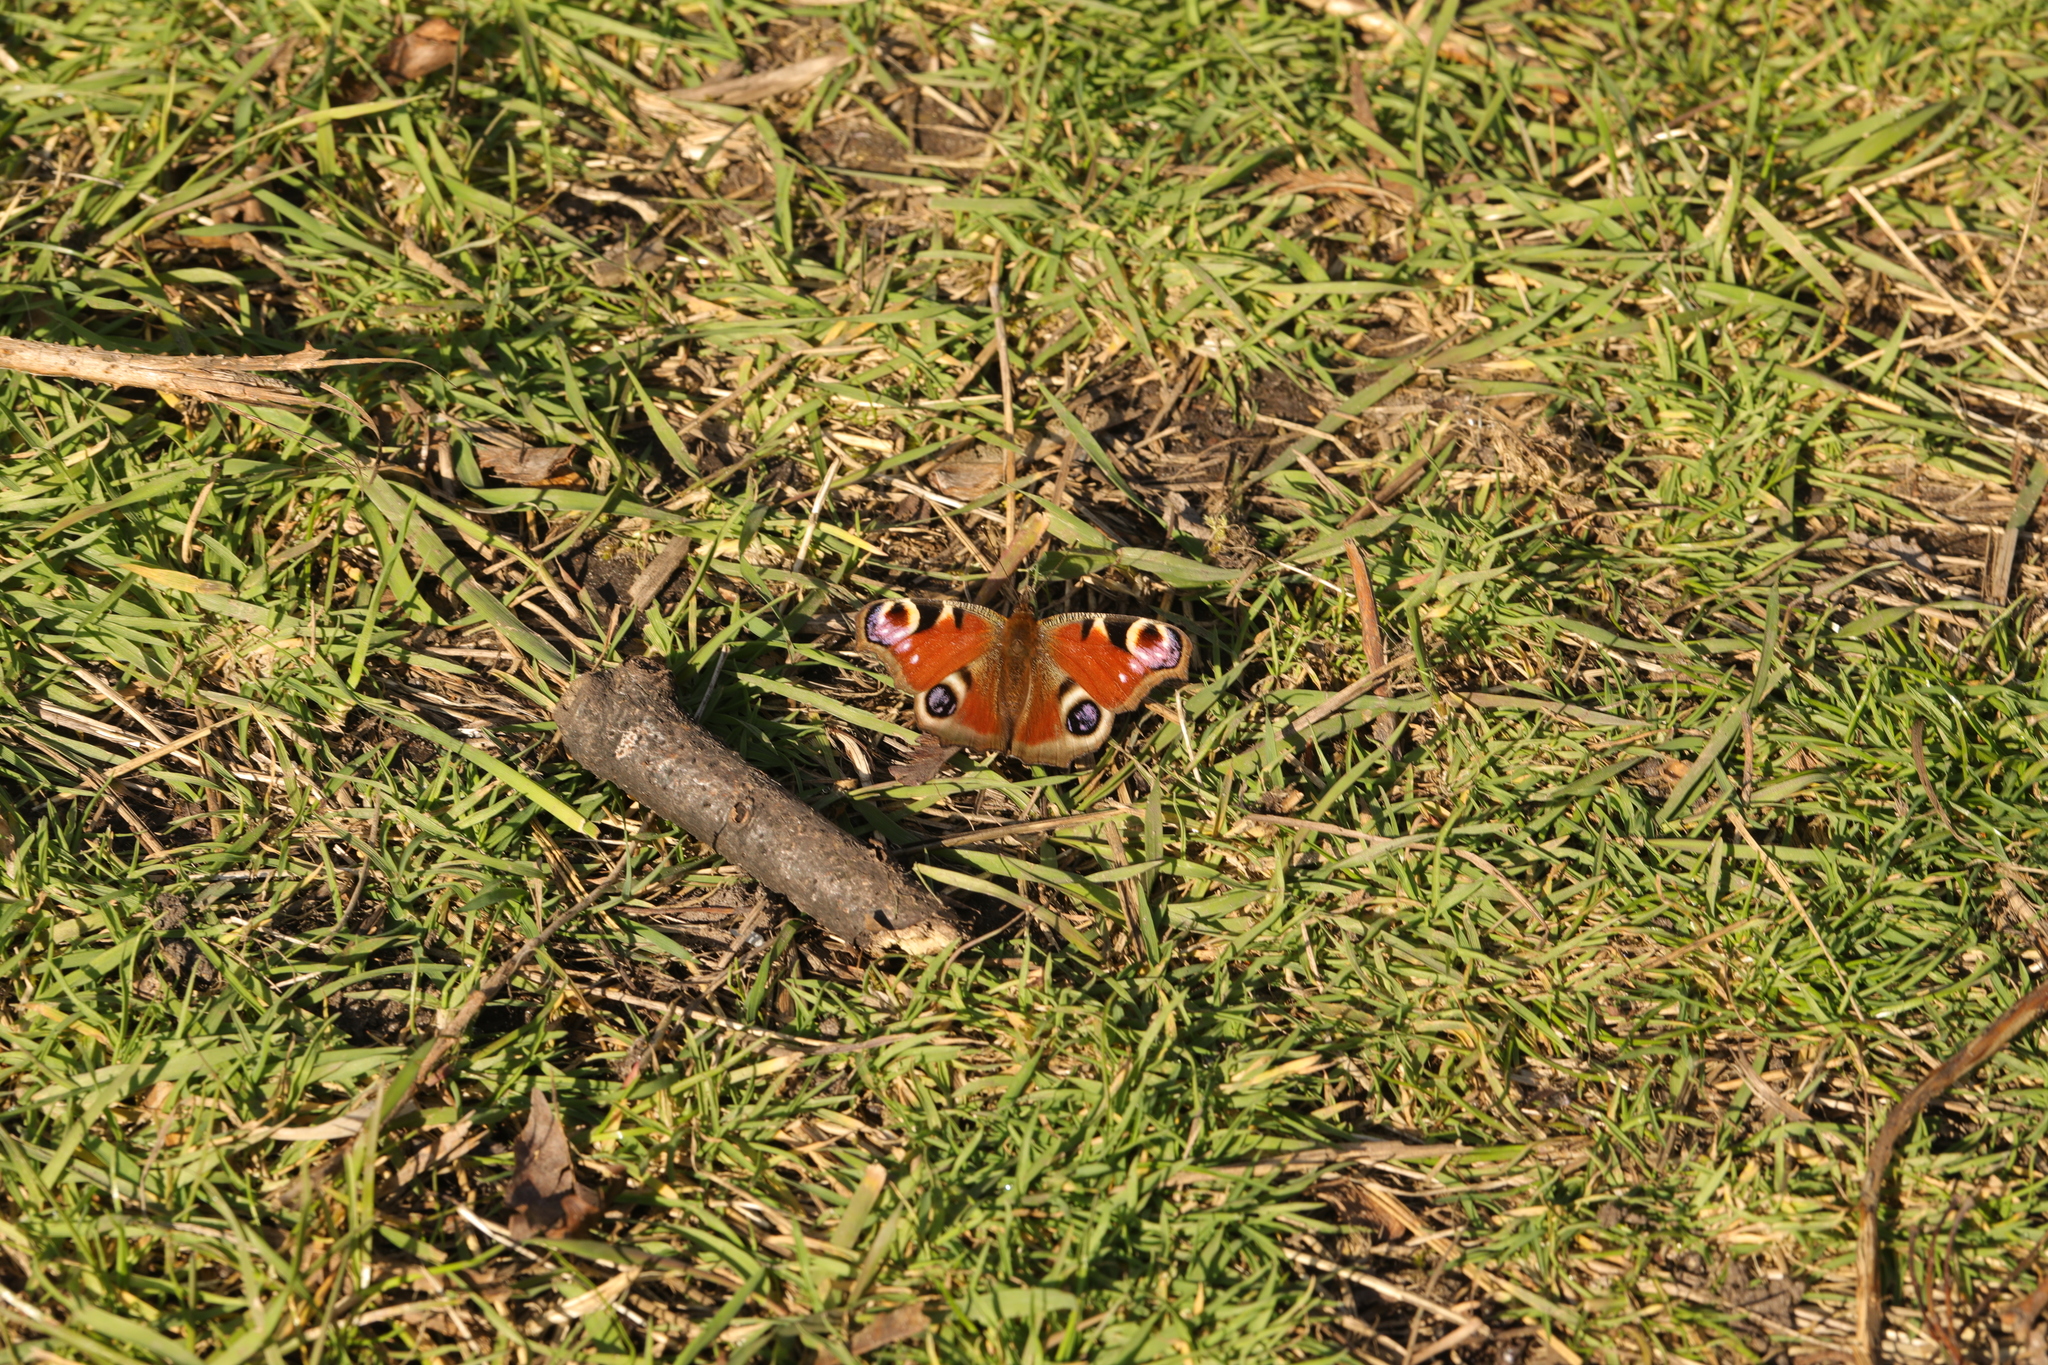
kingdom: Animalia
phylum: Arthropoda
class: Insecta
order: Lepidoptera
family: Nymphalidae
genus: Aglais
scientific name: Aglais io
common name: Peacock
